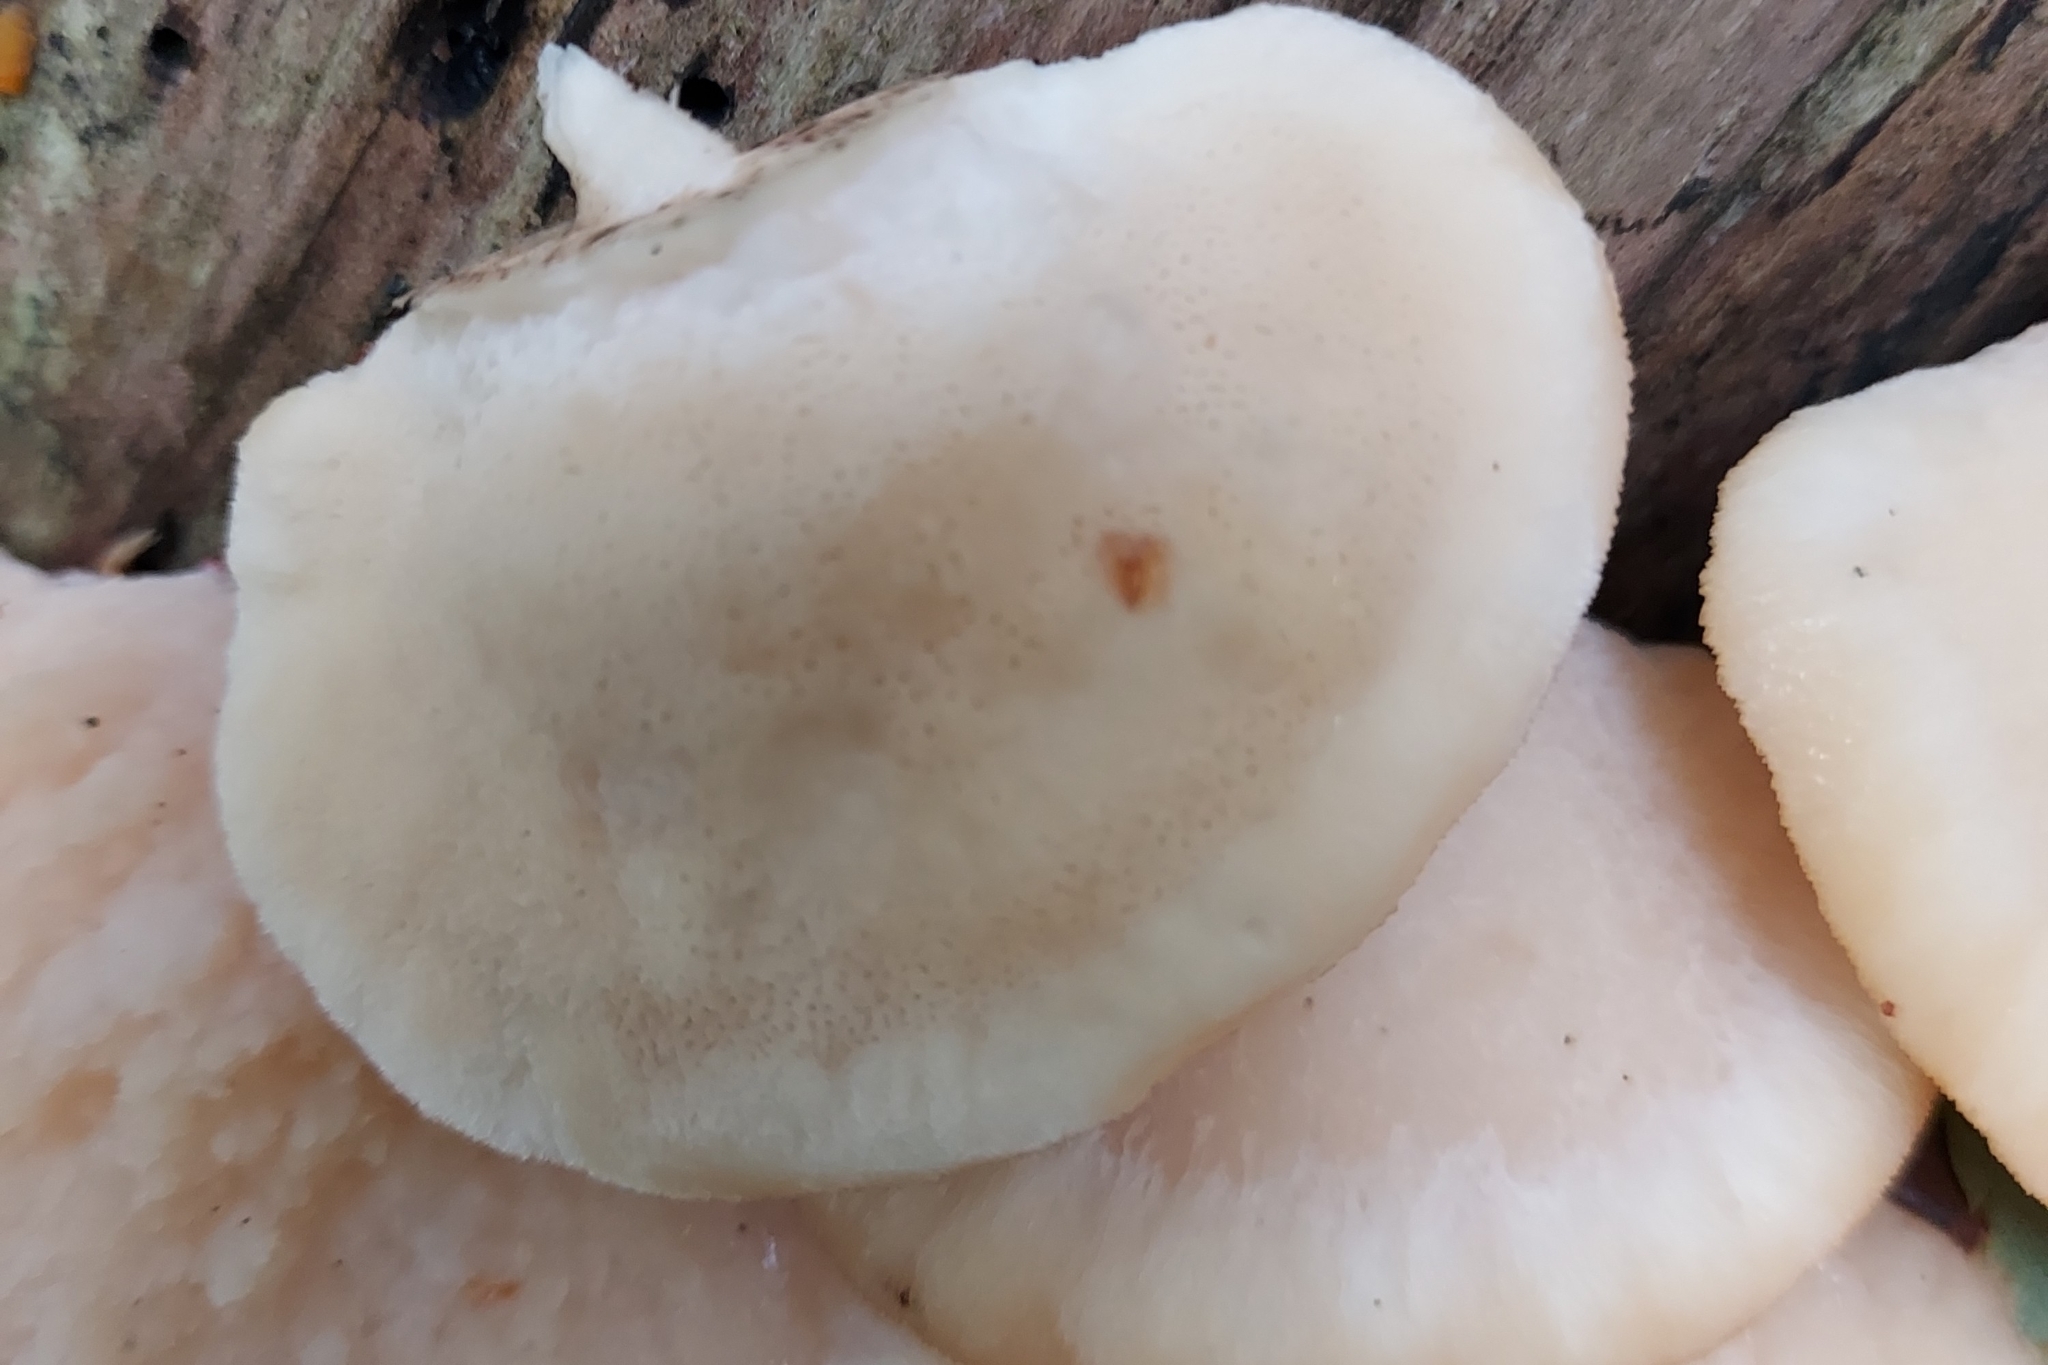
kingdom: Fungi
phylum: Basidiomycota
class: Agaricomycetes
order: Polyporales
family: Fomitopsidaceae
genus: Climacocystis
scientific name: Climacocystis borealis
